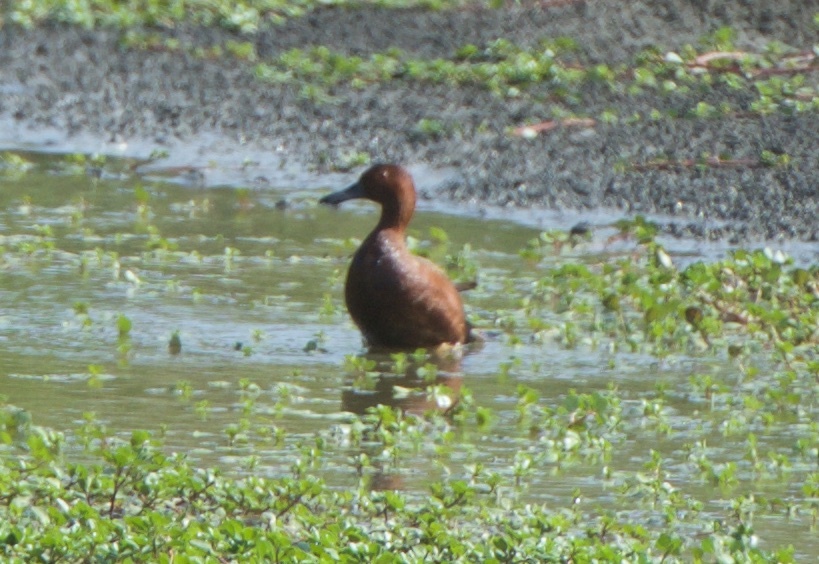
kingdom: Animalia
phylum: Chordata
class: Aves
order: Anseriformes
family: Anatidae
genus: Spatula
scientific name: Spatula cyanoptera
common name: Cinnamon teal
